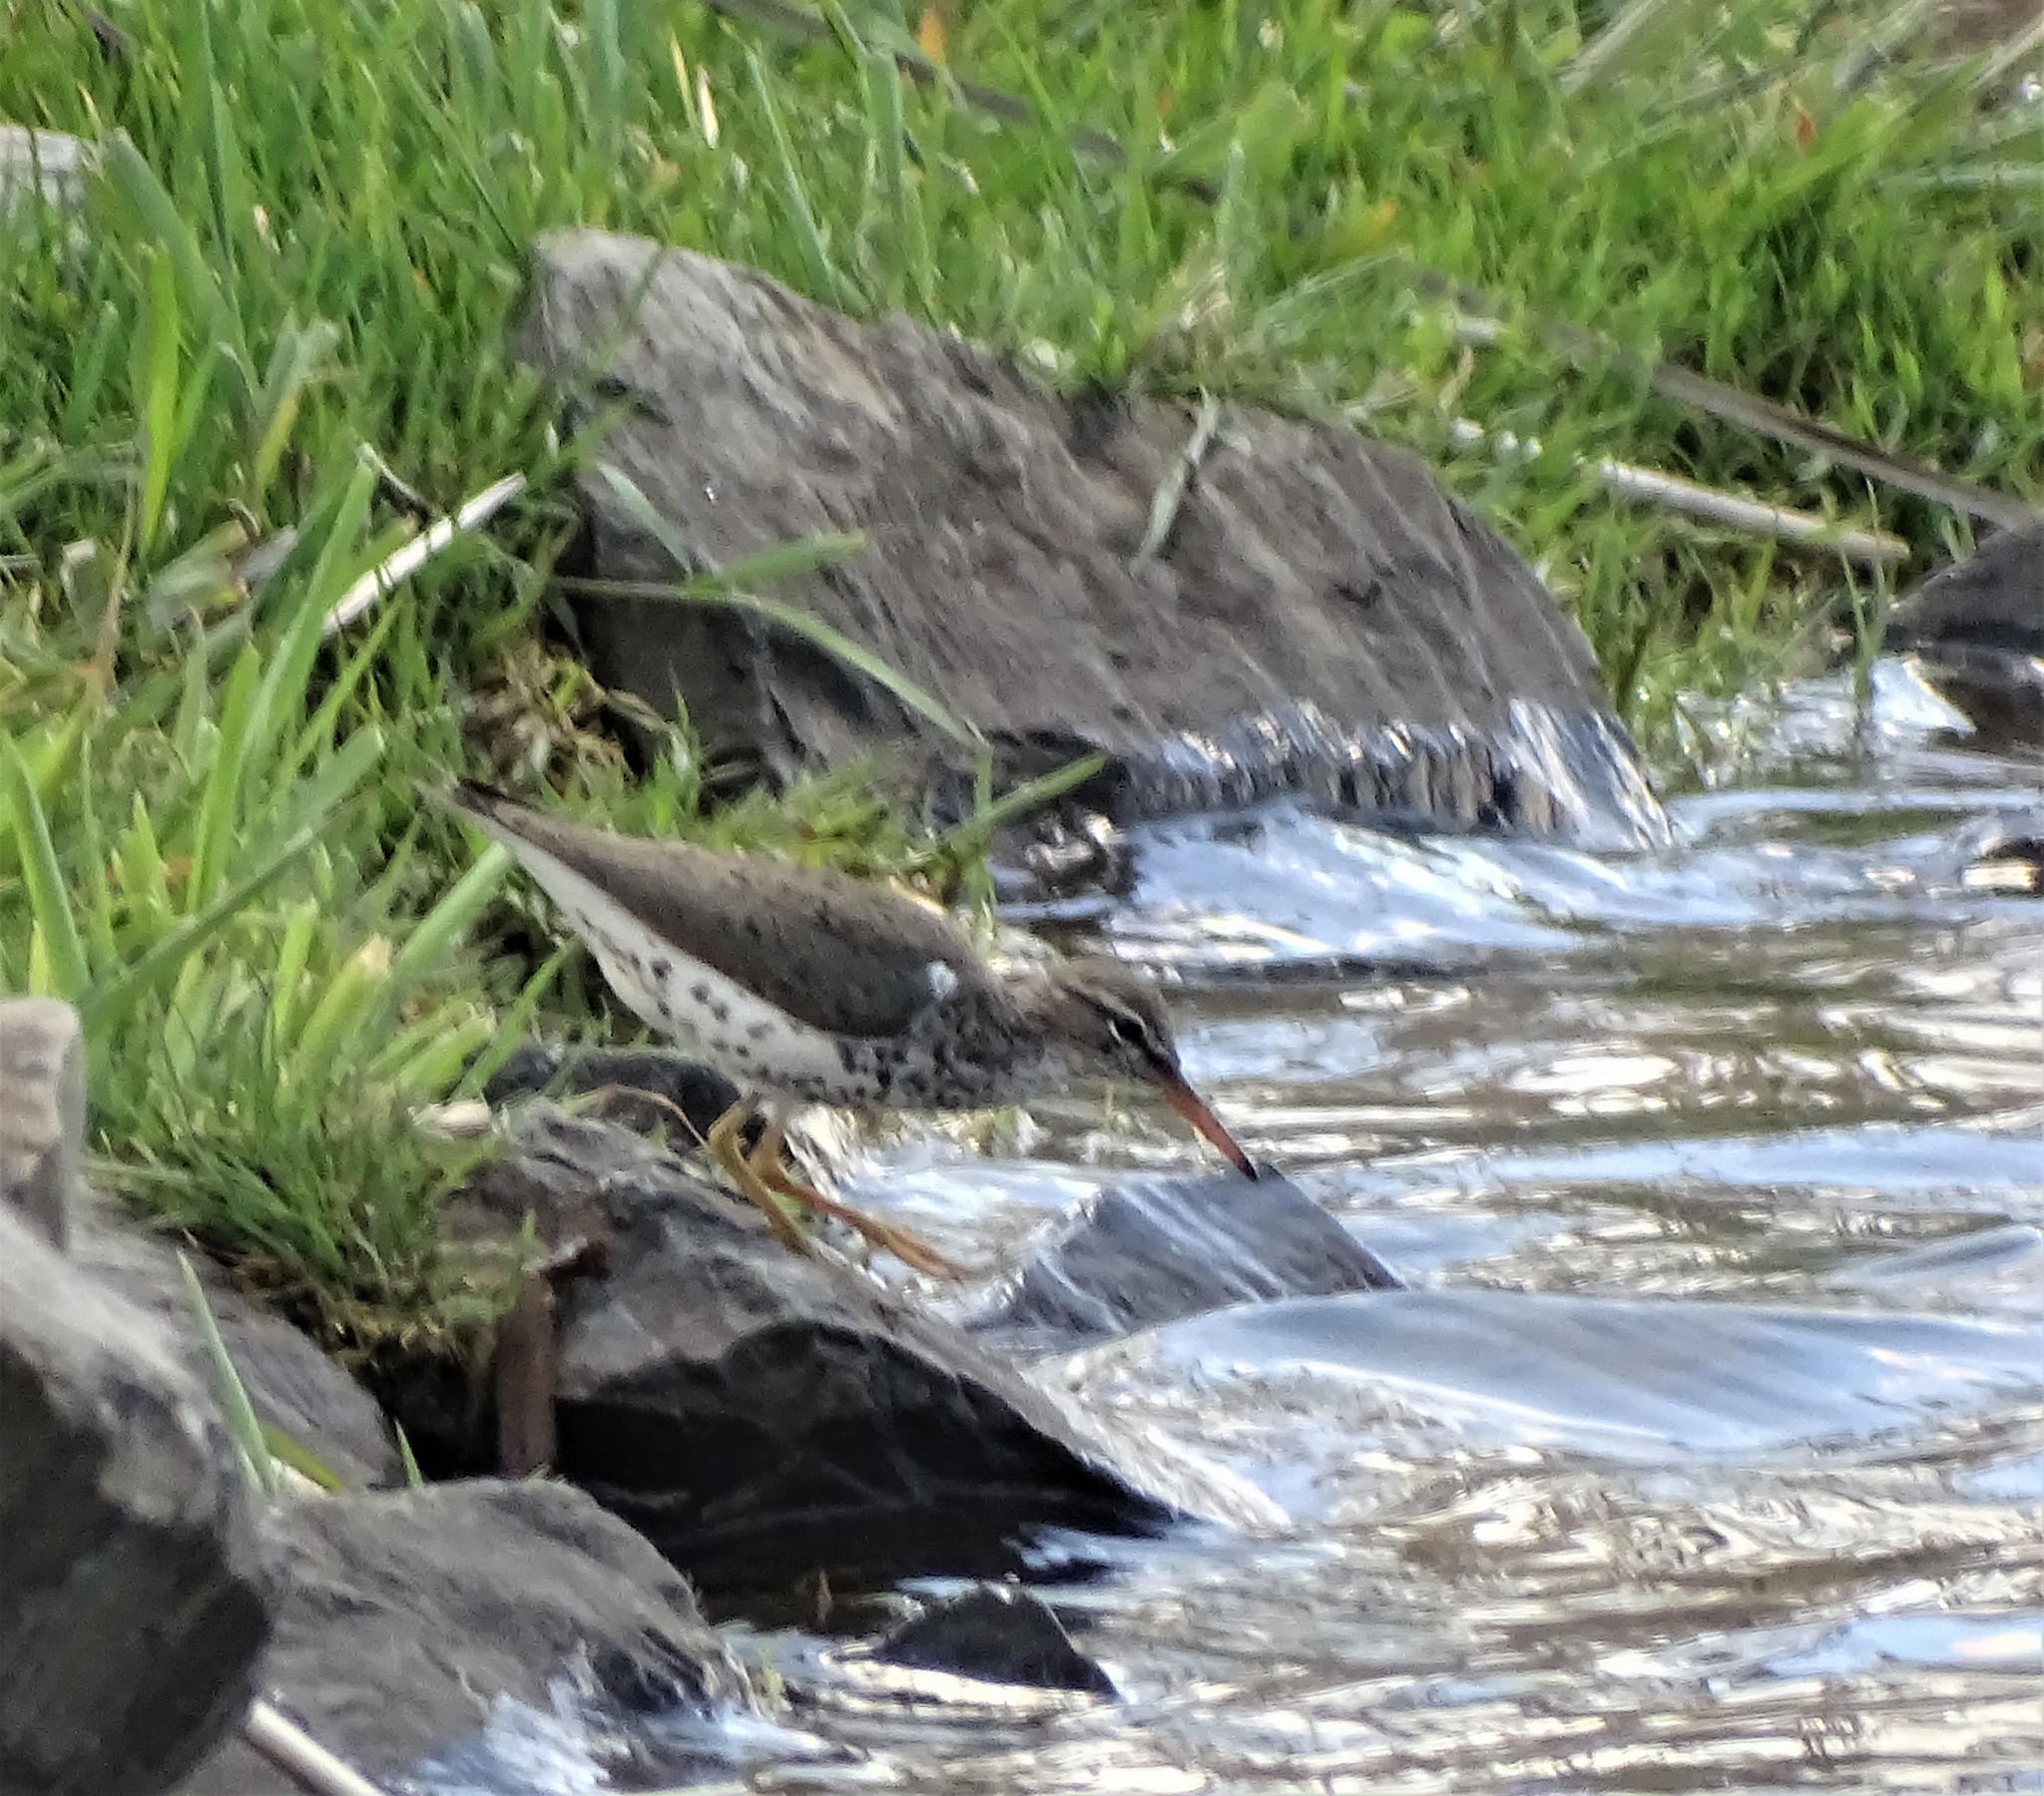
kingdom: Animalia
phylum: Chordata
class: Aves
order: Charadriiformes
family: Scolopacidae
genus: Actitis
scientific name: Actitis macularius
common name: Spotted sandpiper
